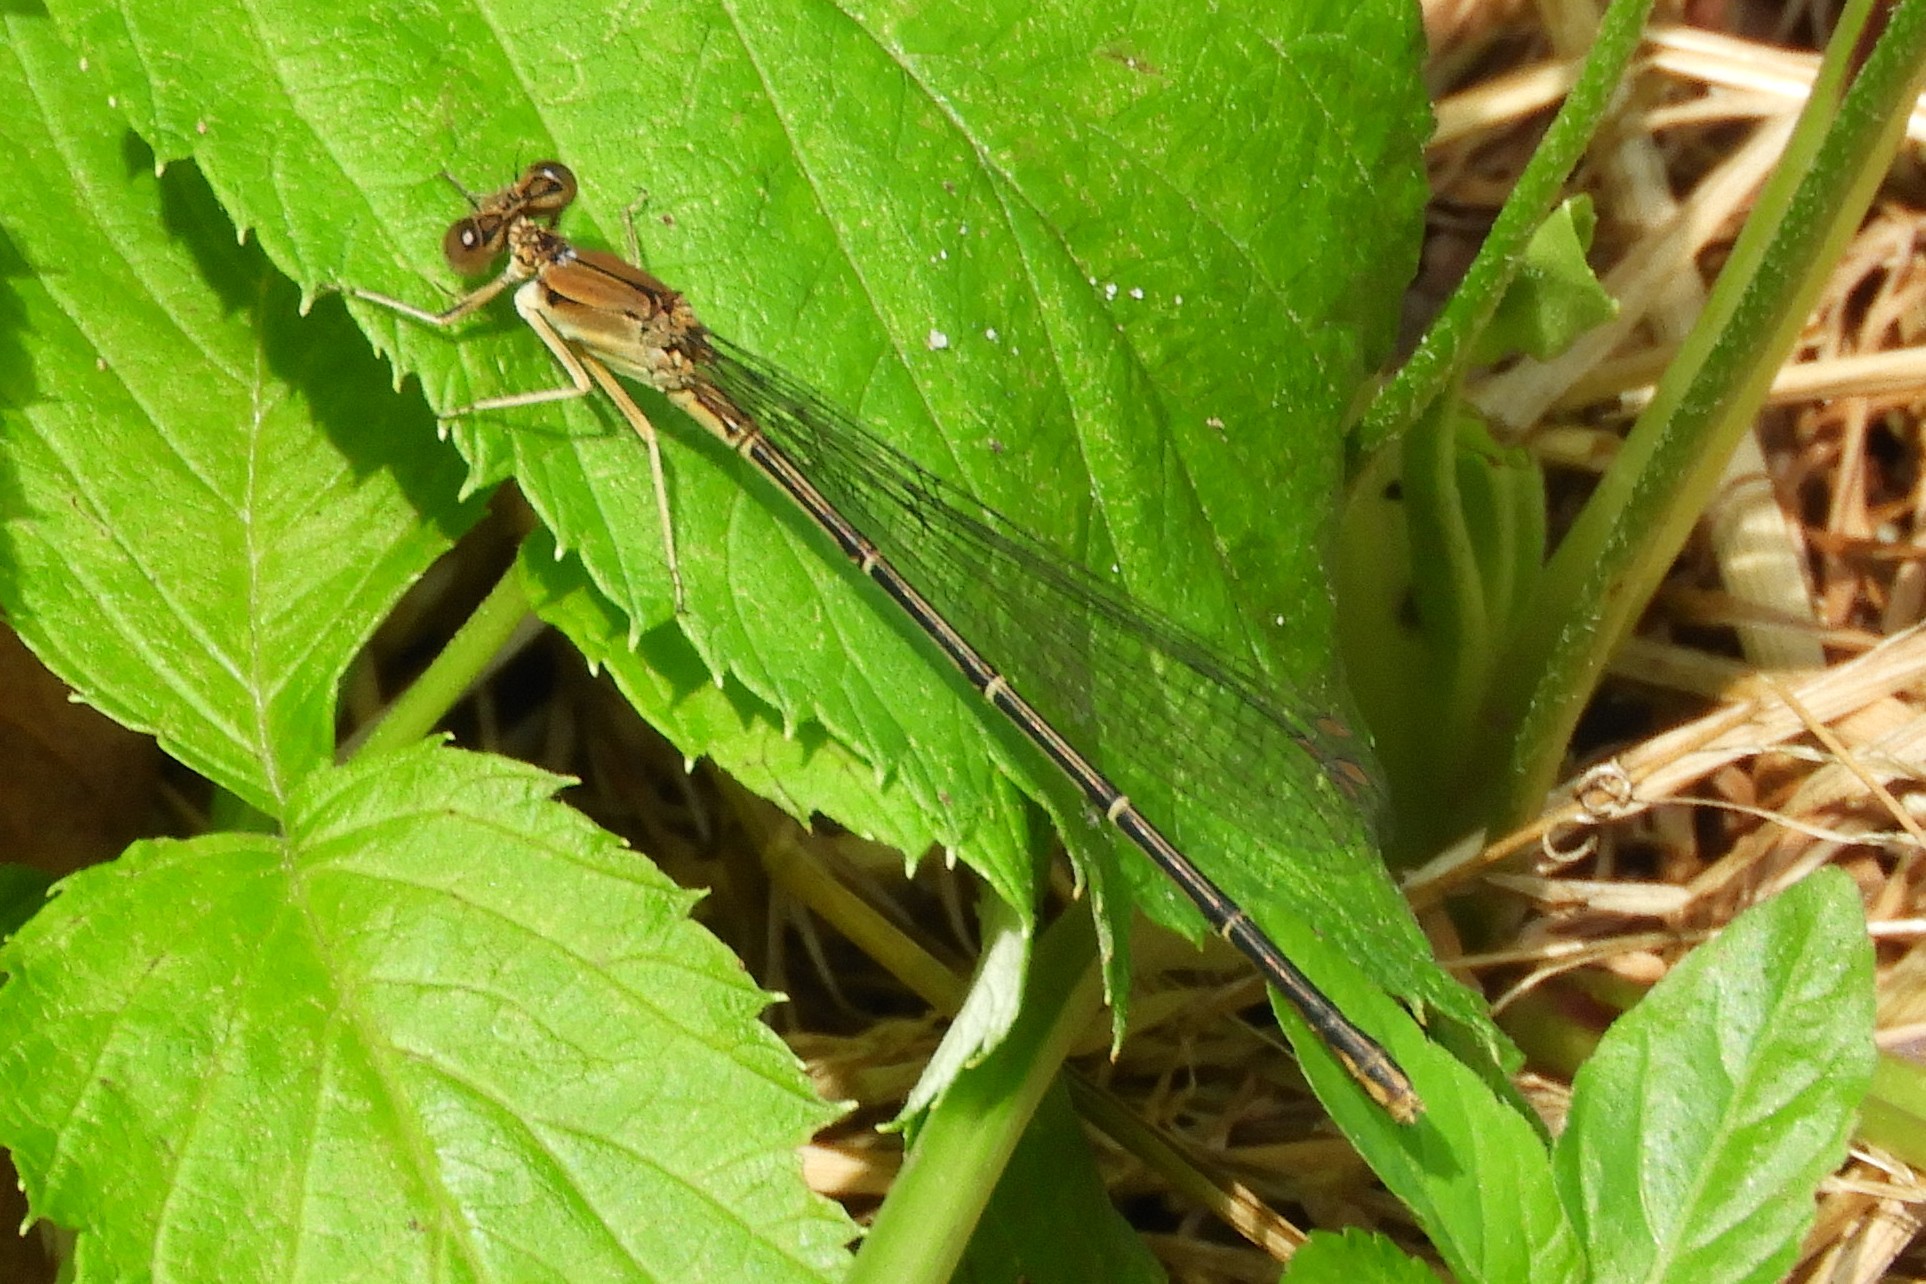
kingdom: Animalia
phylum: Arthropoda
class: Insecta
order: Odonata
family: Coenagrionidae
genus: Argia
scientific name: Argia apicalis
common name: Blue-fronted dancer
